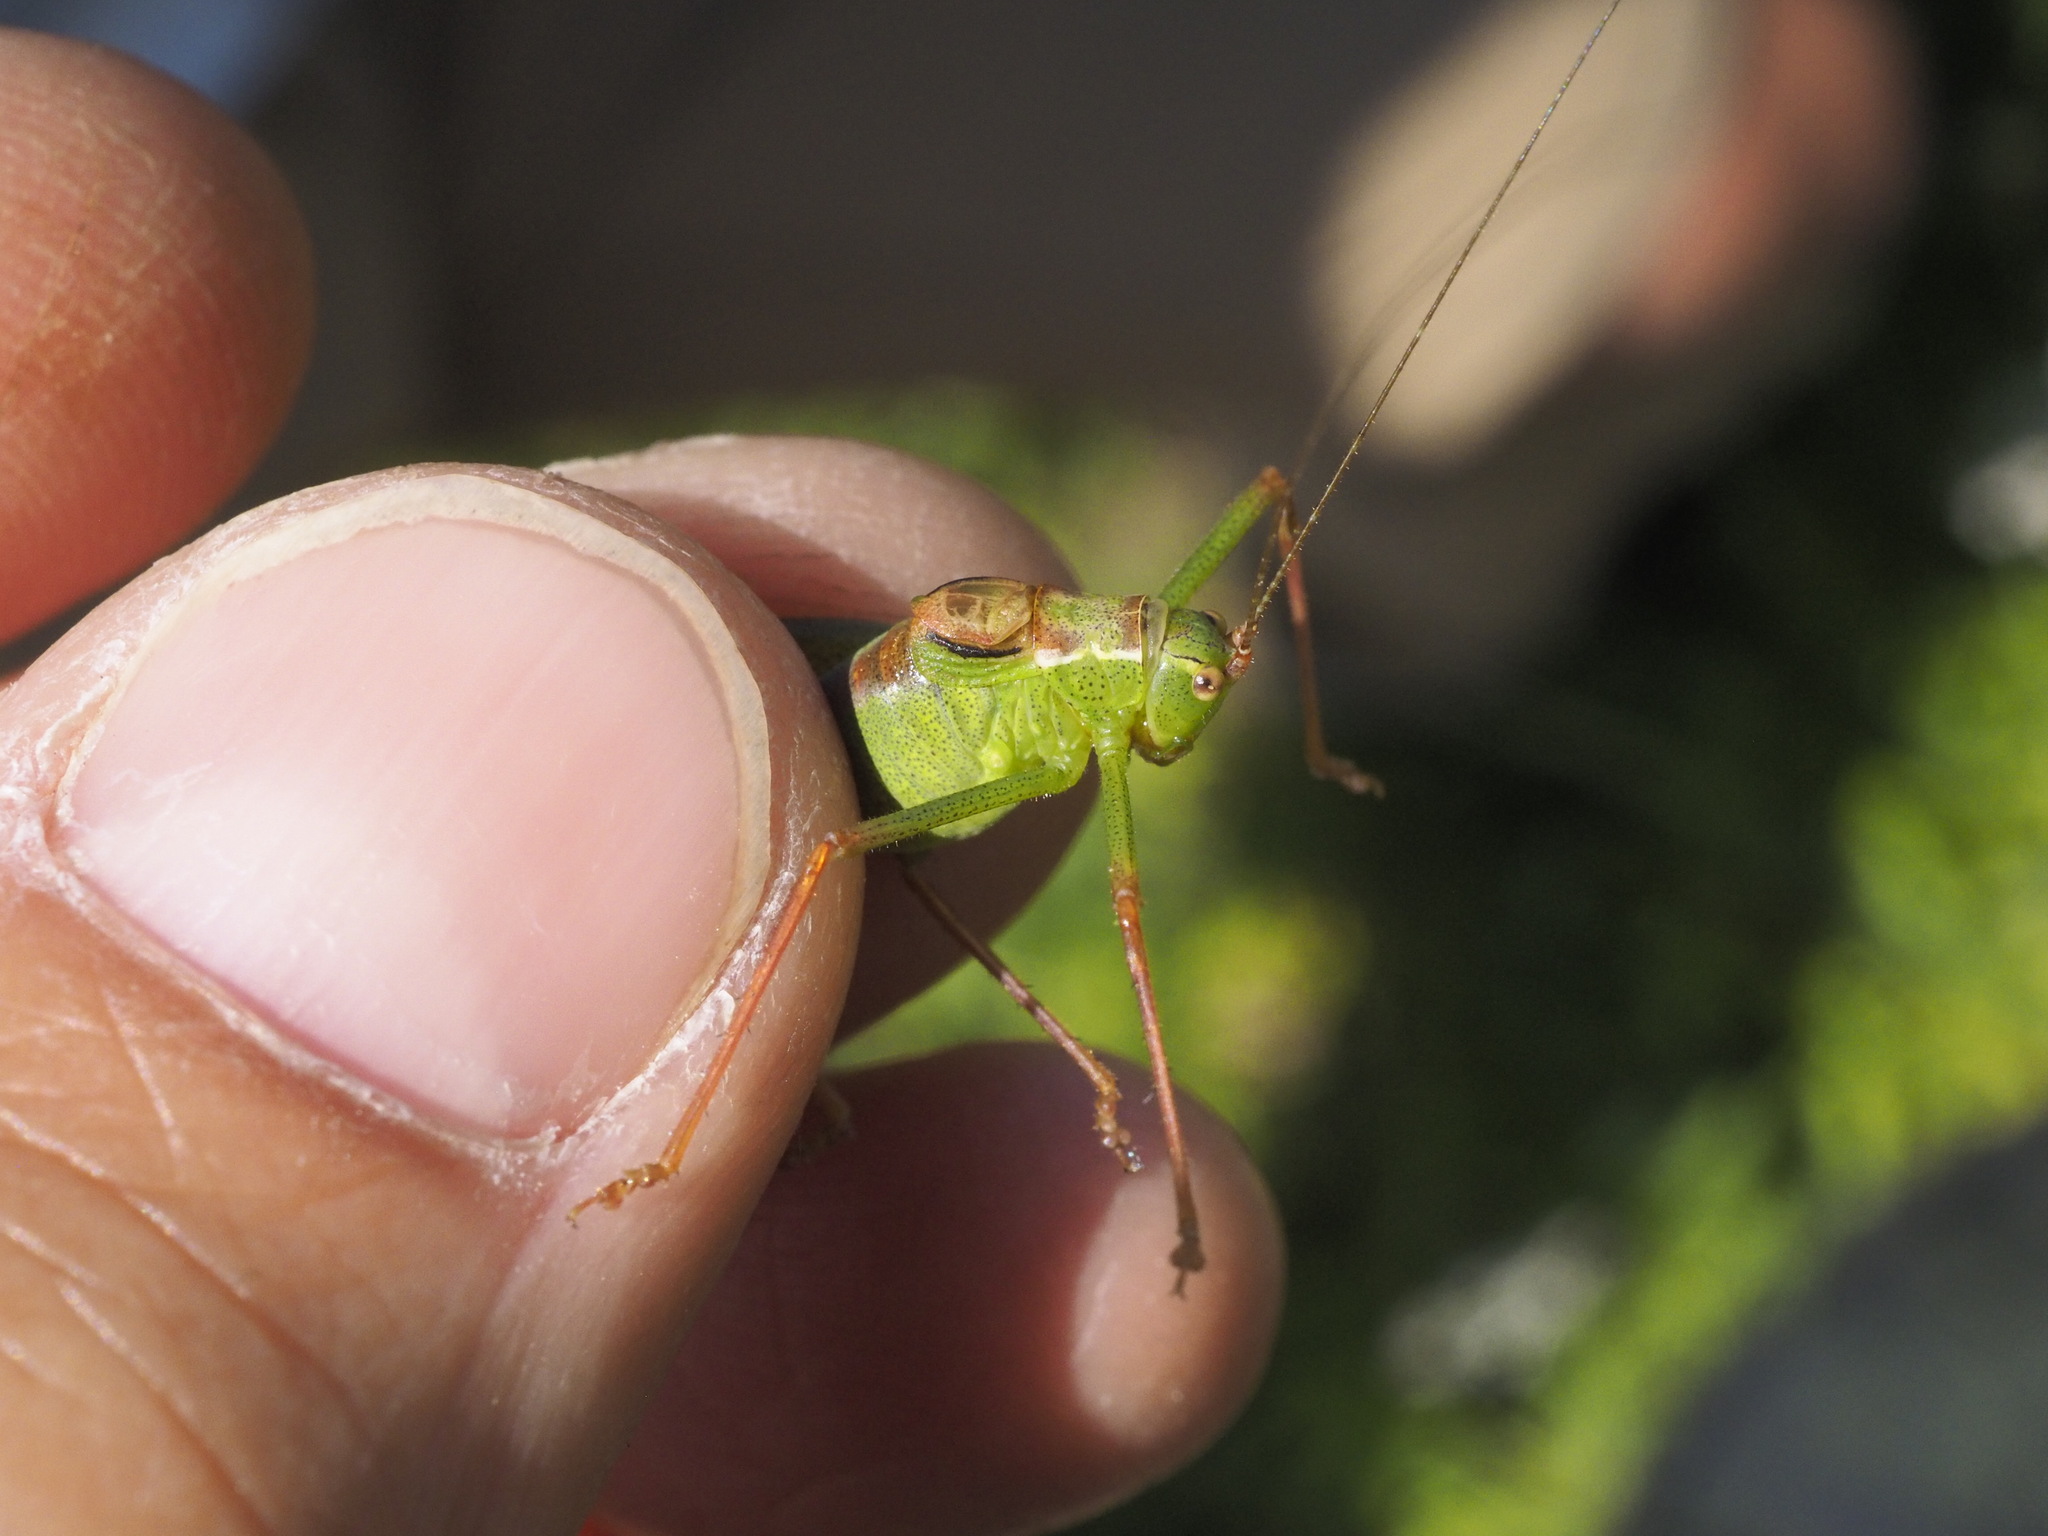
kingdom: Animalia
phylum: Arthropoda
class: Insecta
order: Orthoptera
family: Tettigoniidae
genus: Leptophyes
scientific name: Leptophyes punctatissima
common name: Speckled bush-cricket
